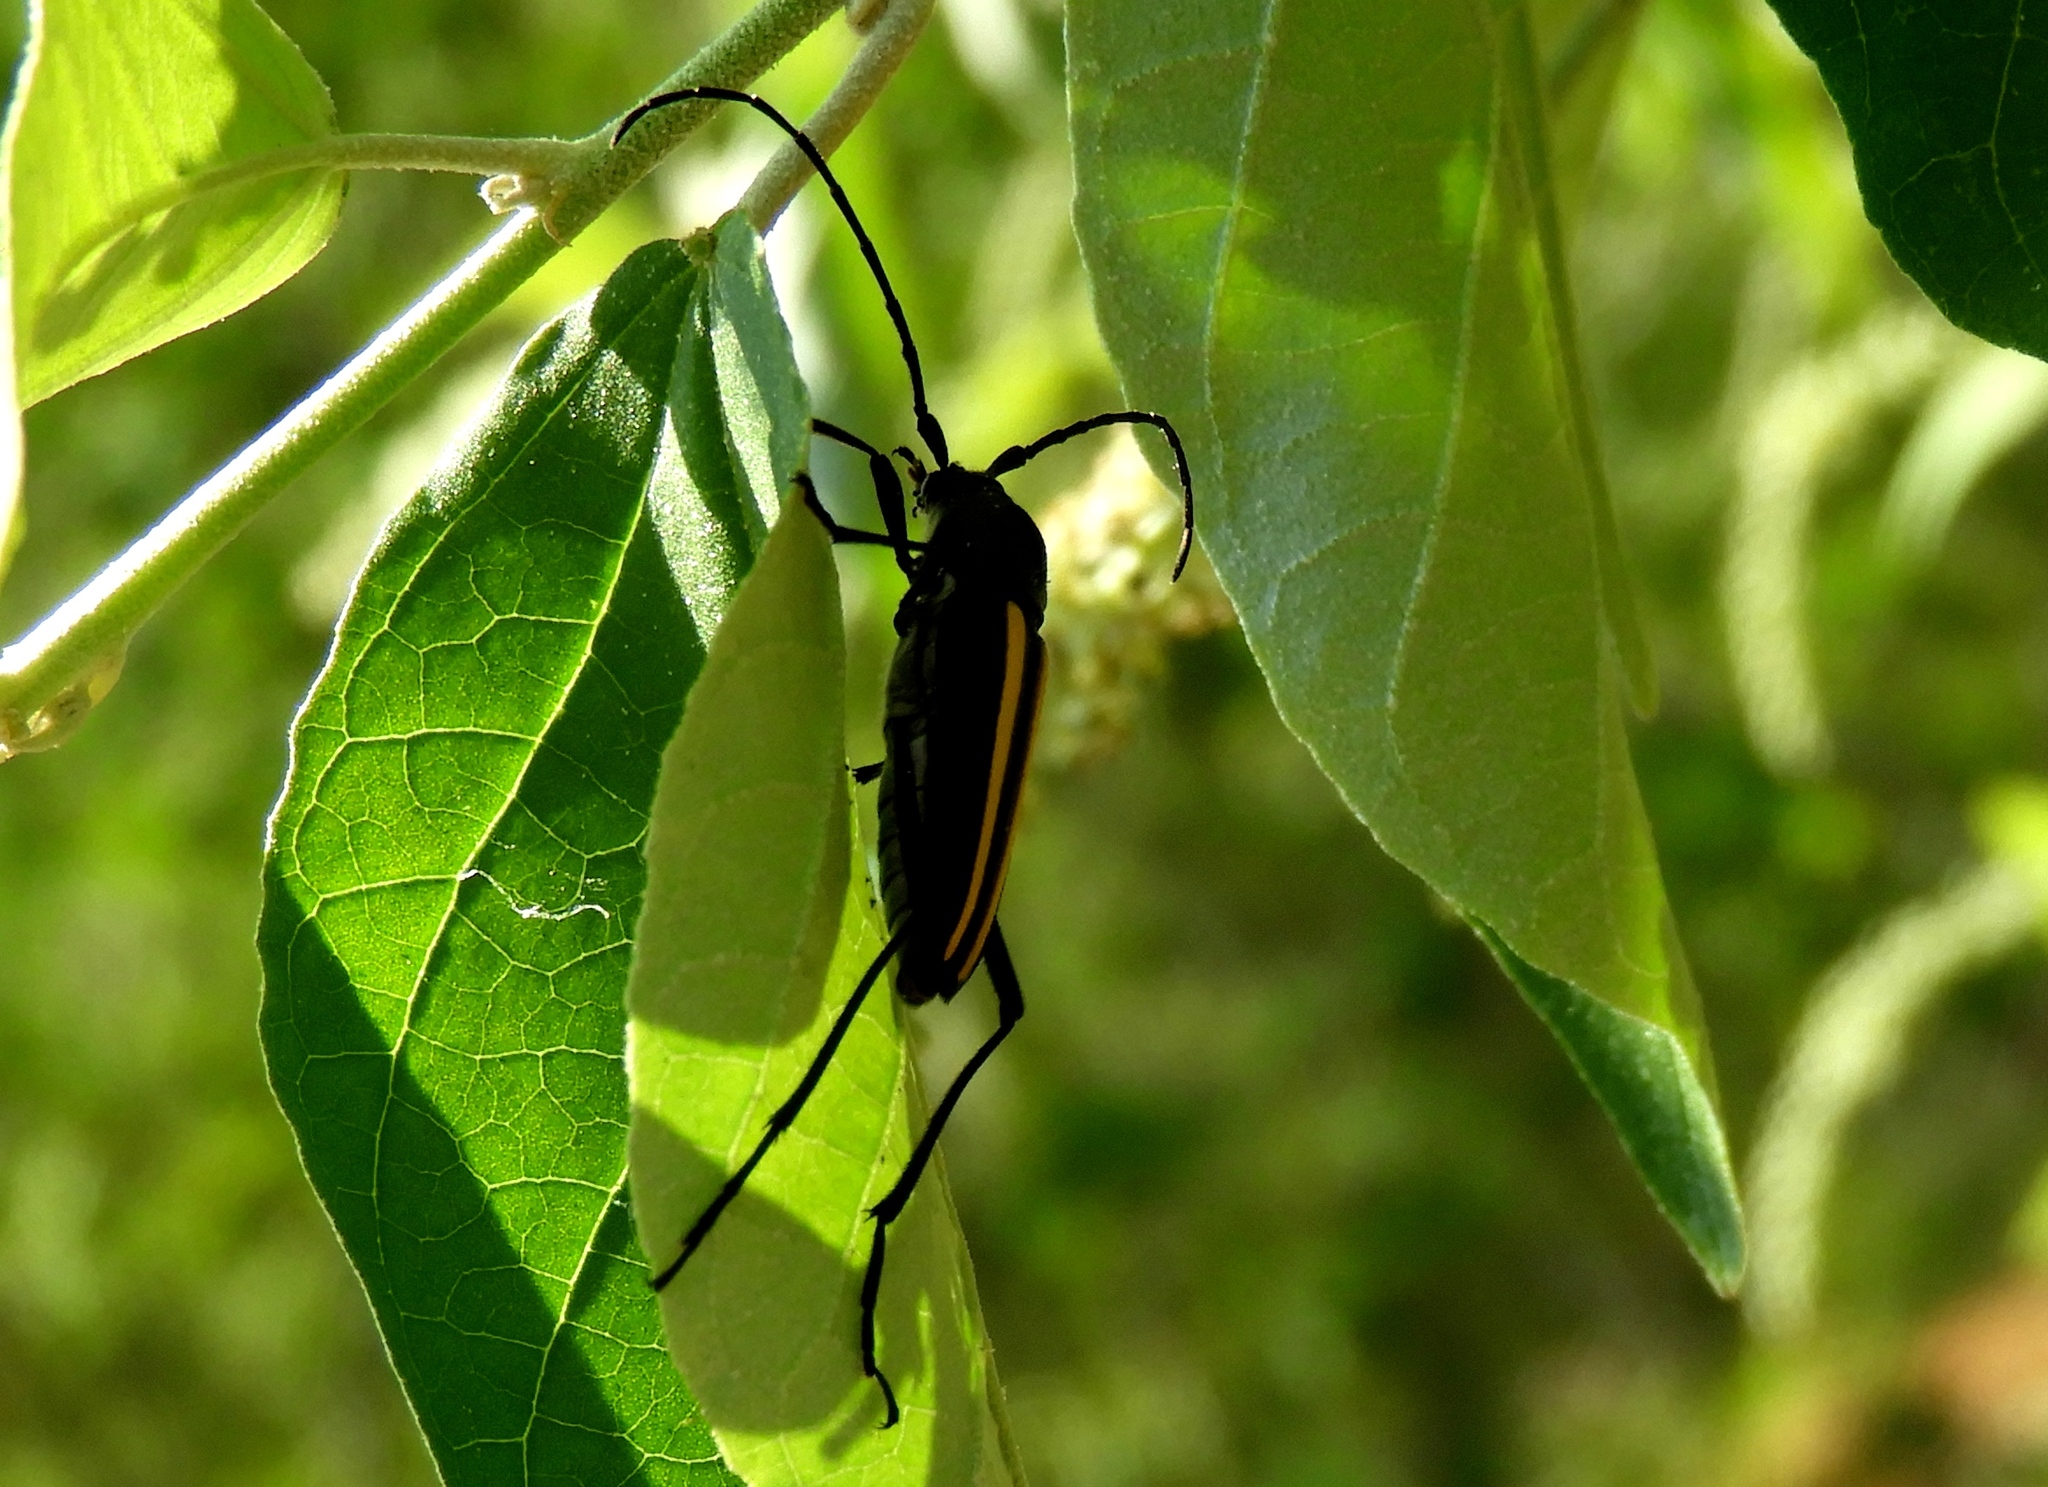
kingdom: Animalia
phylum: Arthropoda
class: Insecta
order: Coleoptera
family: Cerambycidae
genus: Lophalia
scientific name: Lophalia
